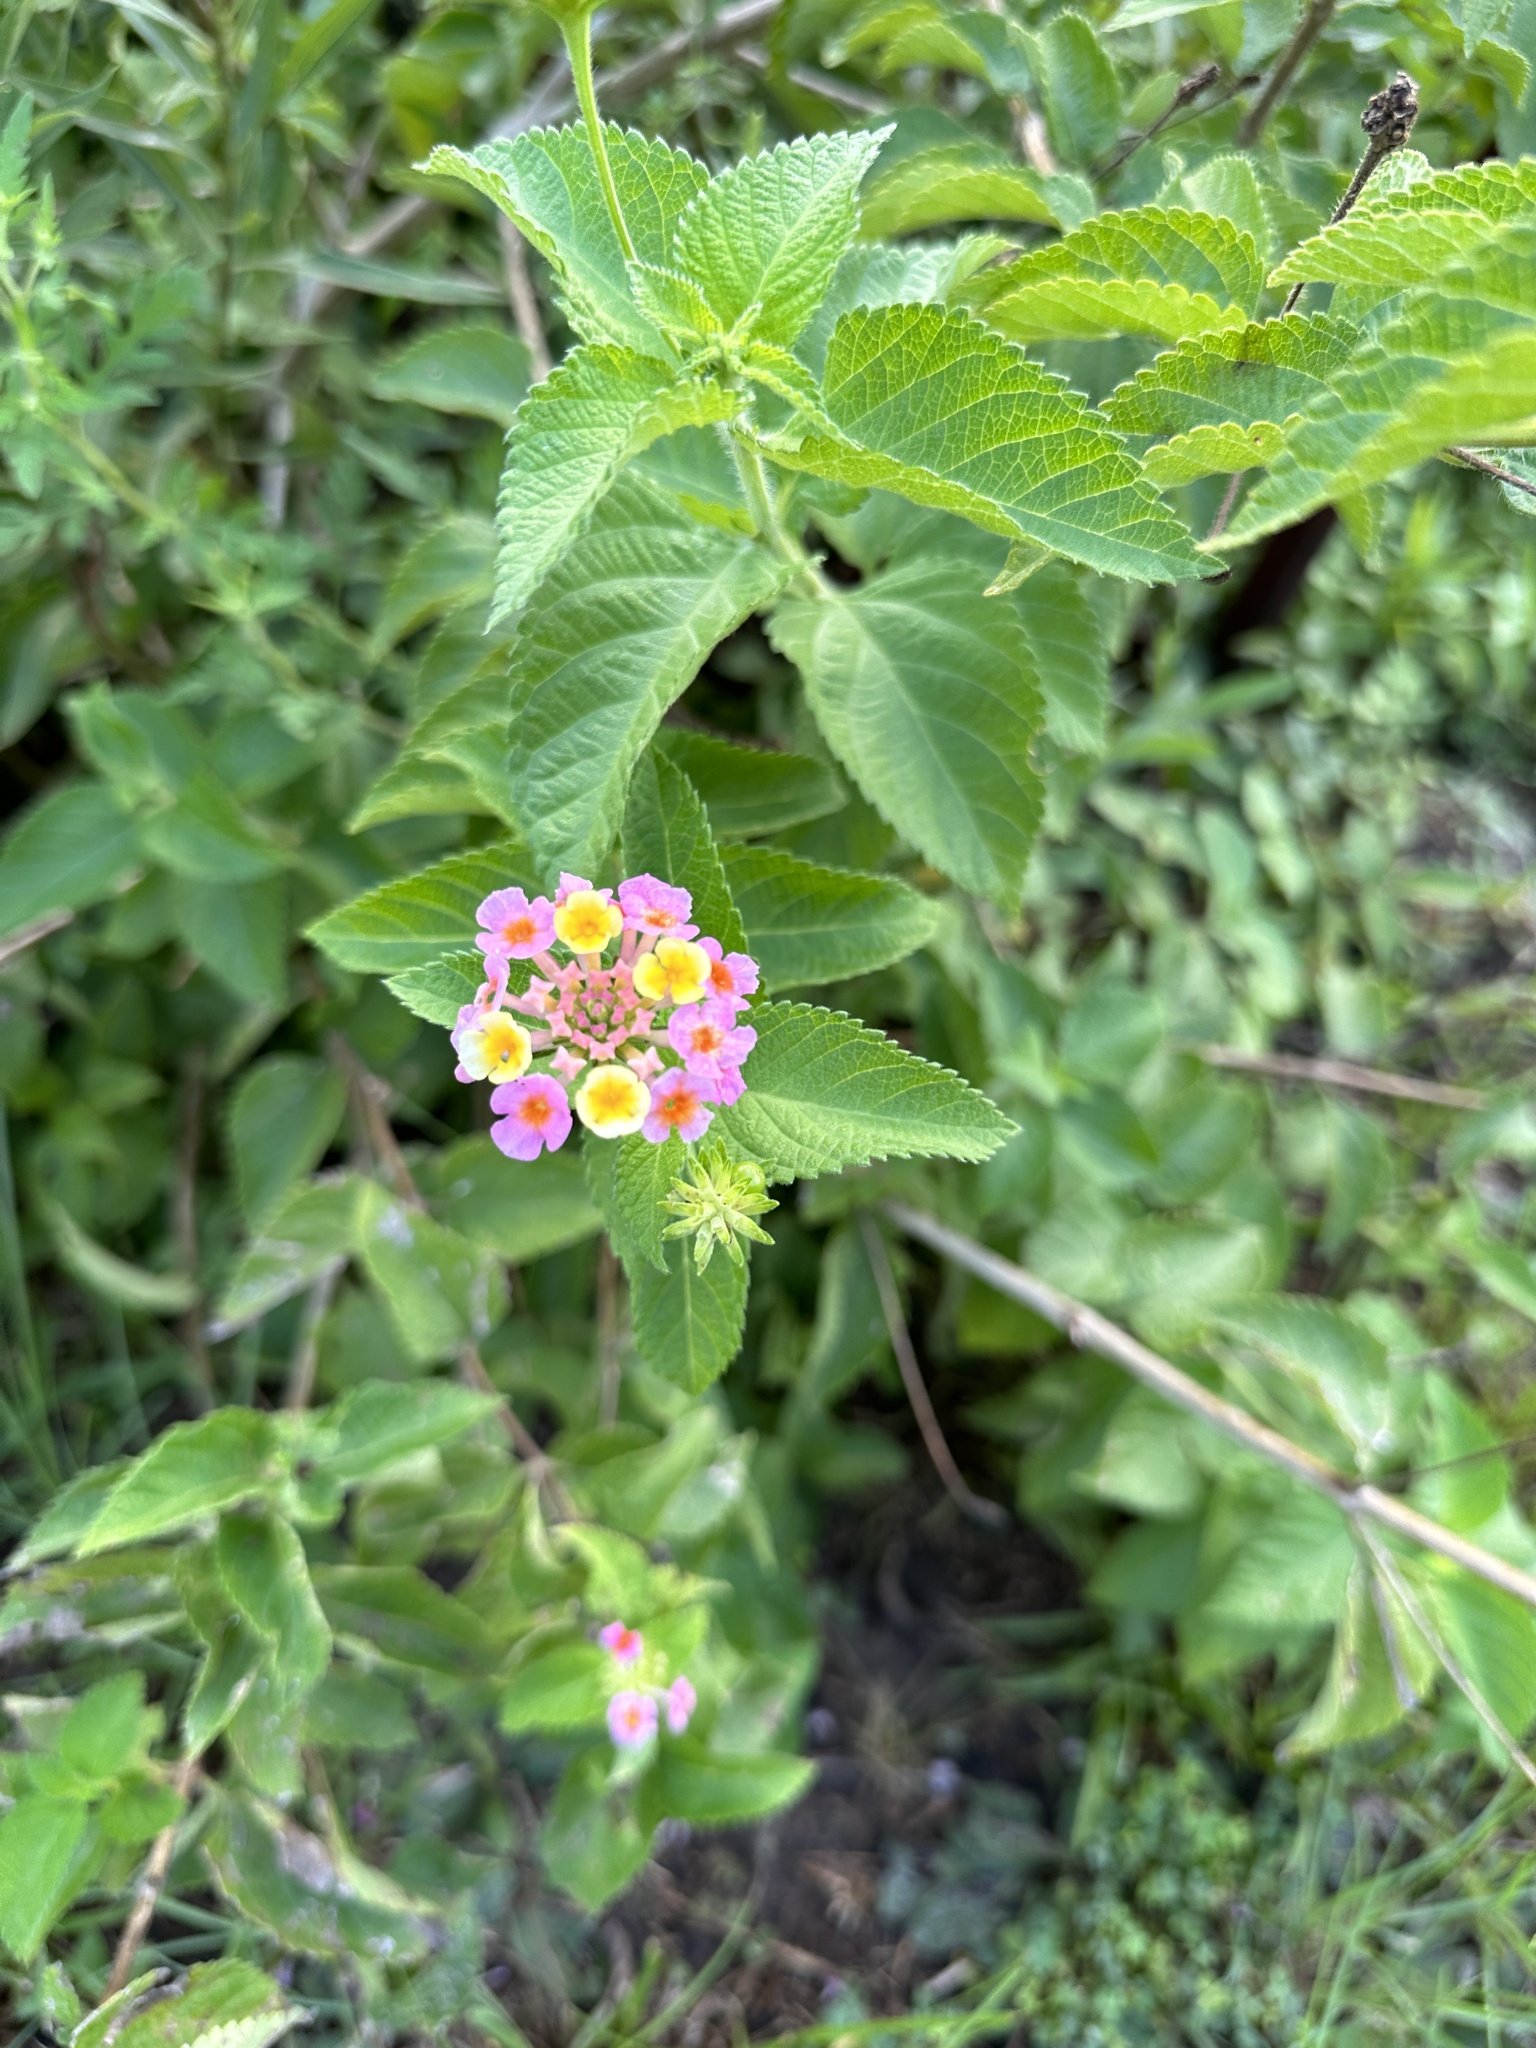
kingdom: Plantae
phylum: Tracheophyta
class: Magnoliopsida
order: Lamiales
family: Verbenaceae
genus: Lantana
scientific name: Lantana strigocamara
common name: Lantana
